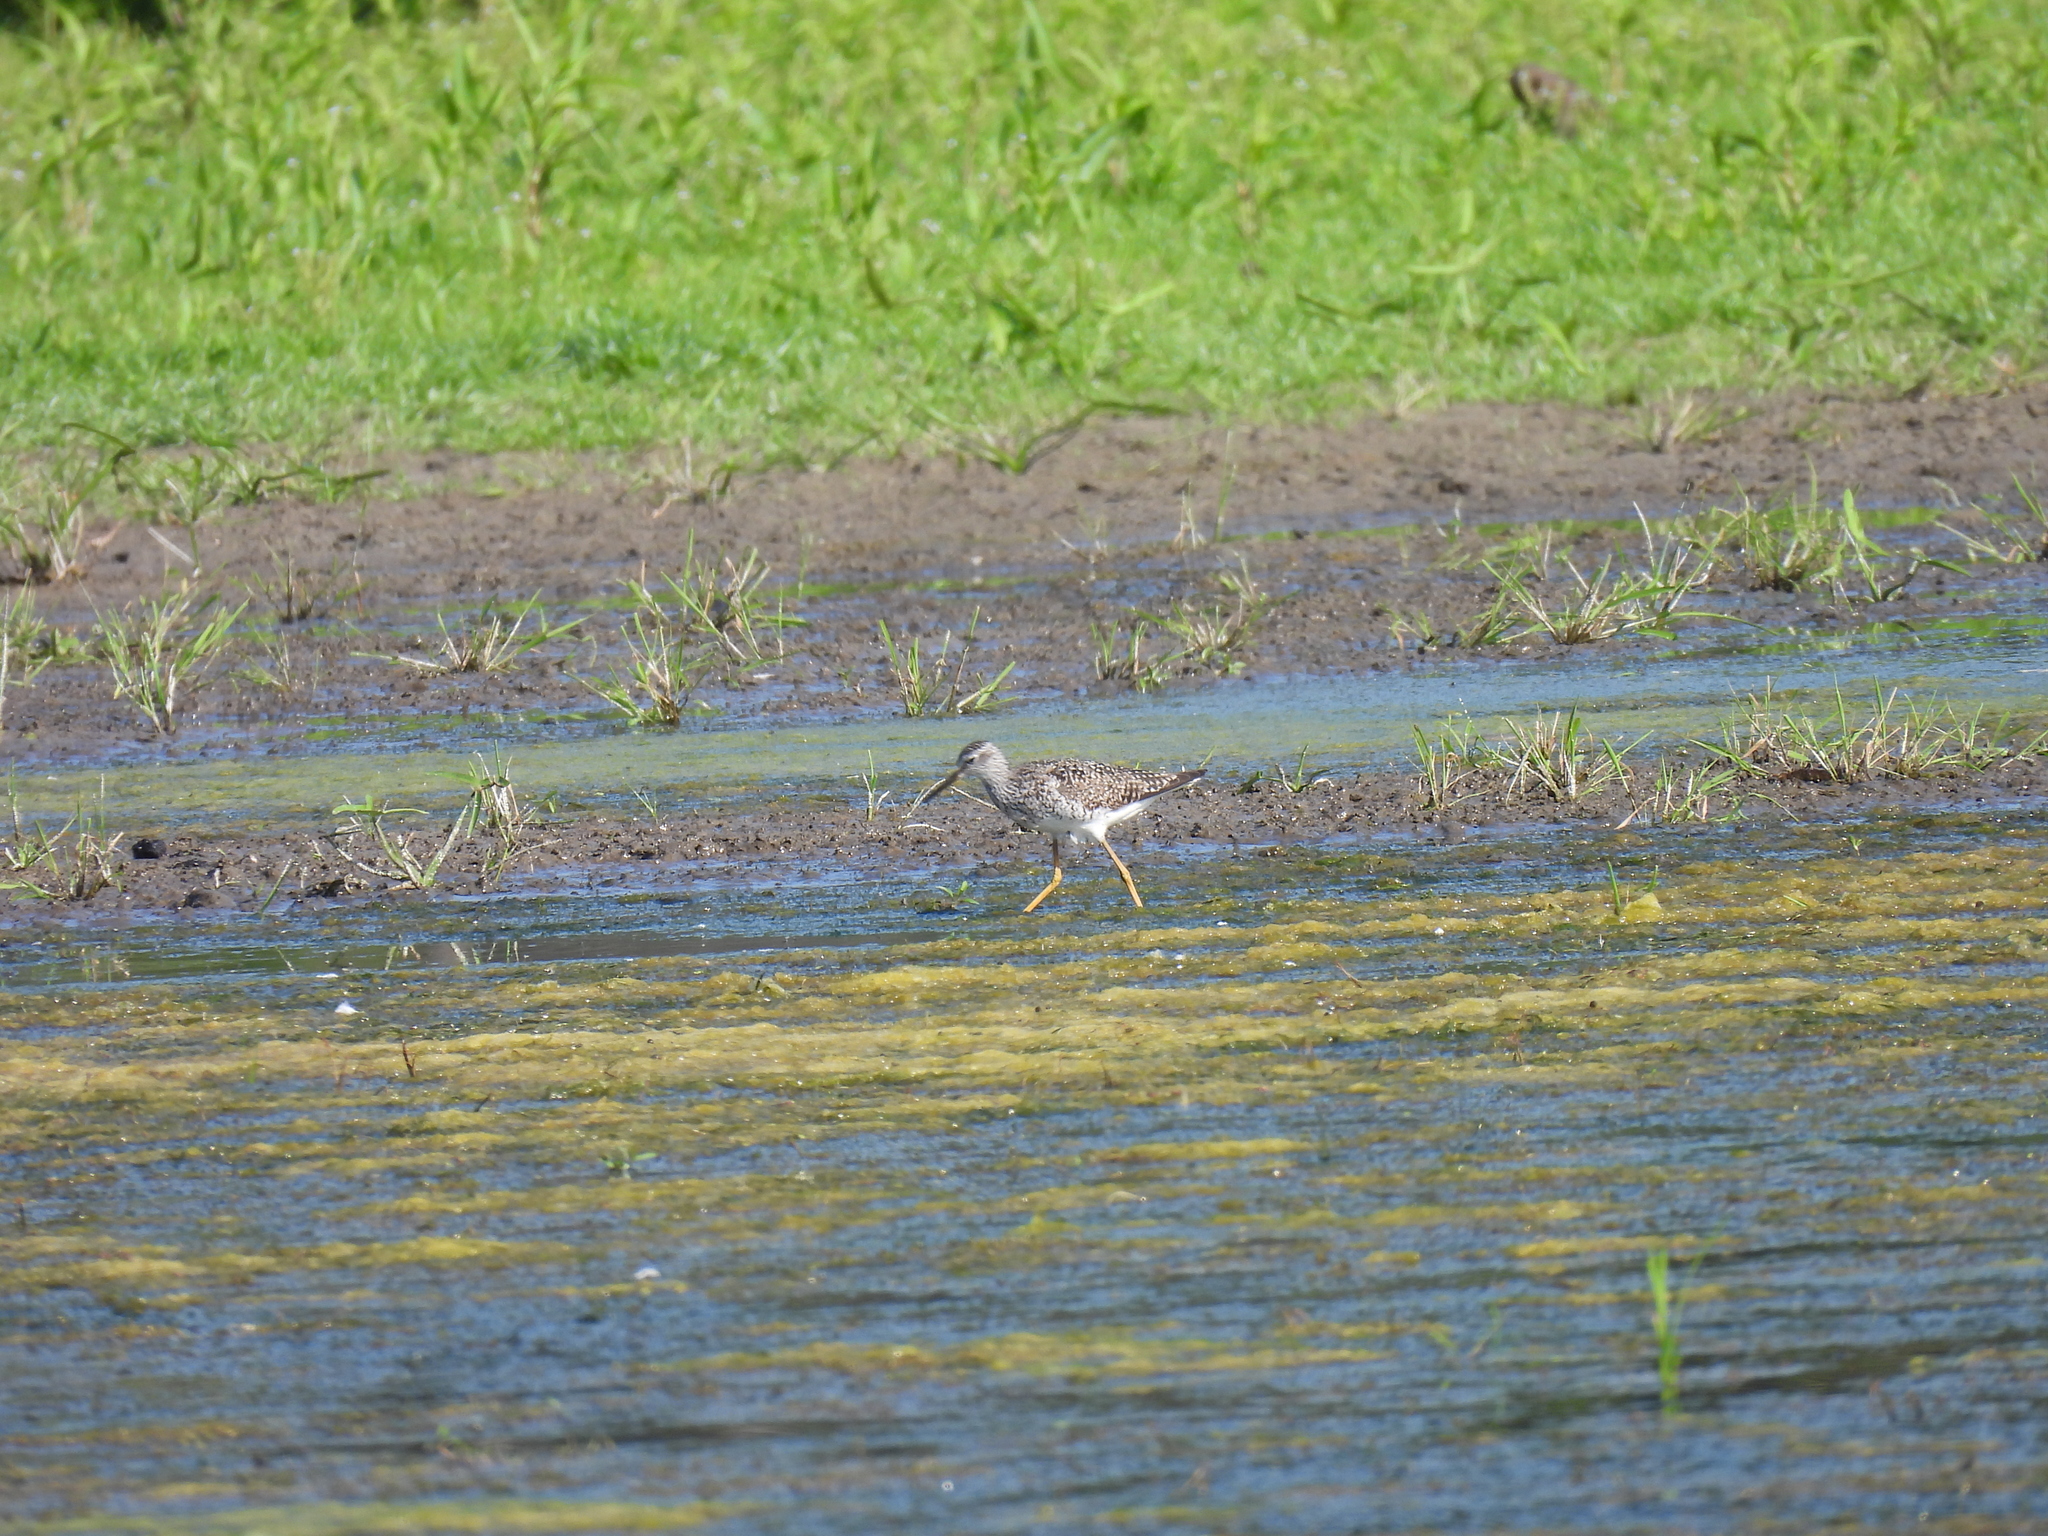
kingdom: Animalia
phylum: Chordata
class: Aves
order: Charadriiformes
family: Scolopacidae
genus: Tringa
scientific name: Tringa flavipes
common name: Lesser yellowlegs
